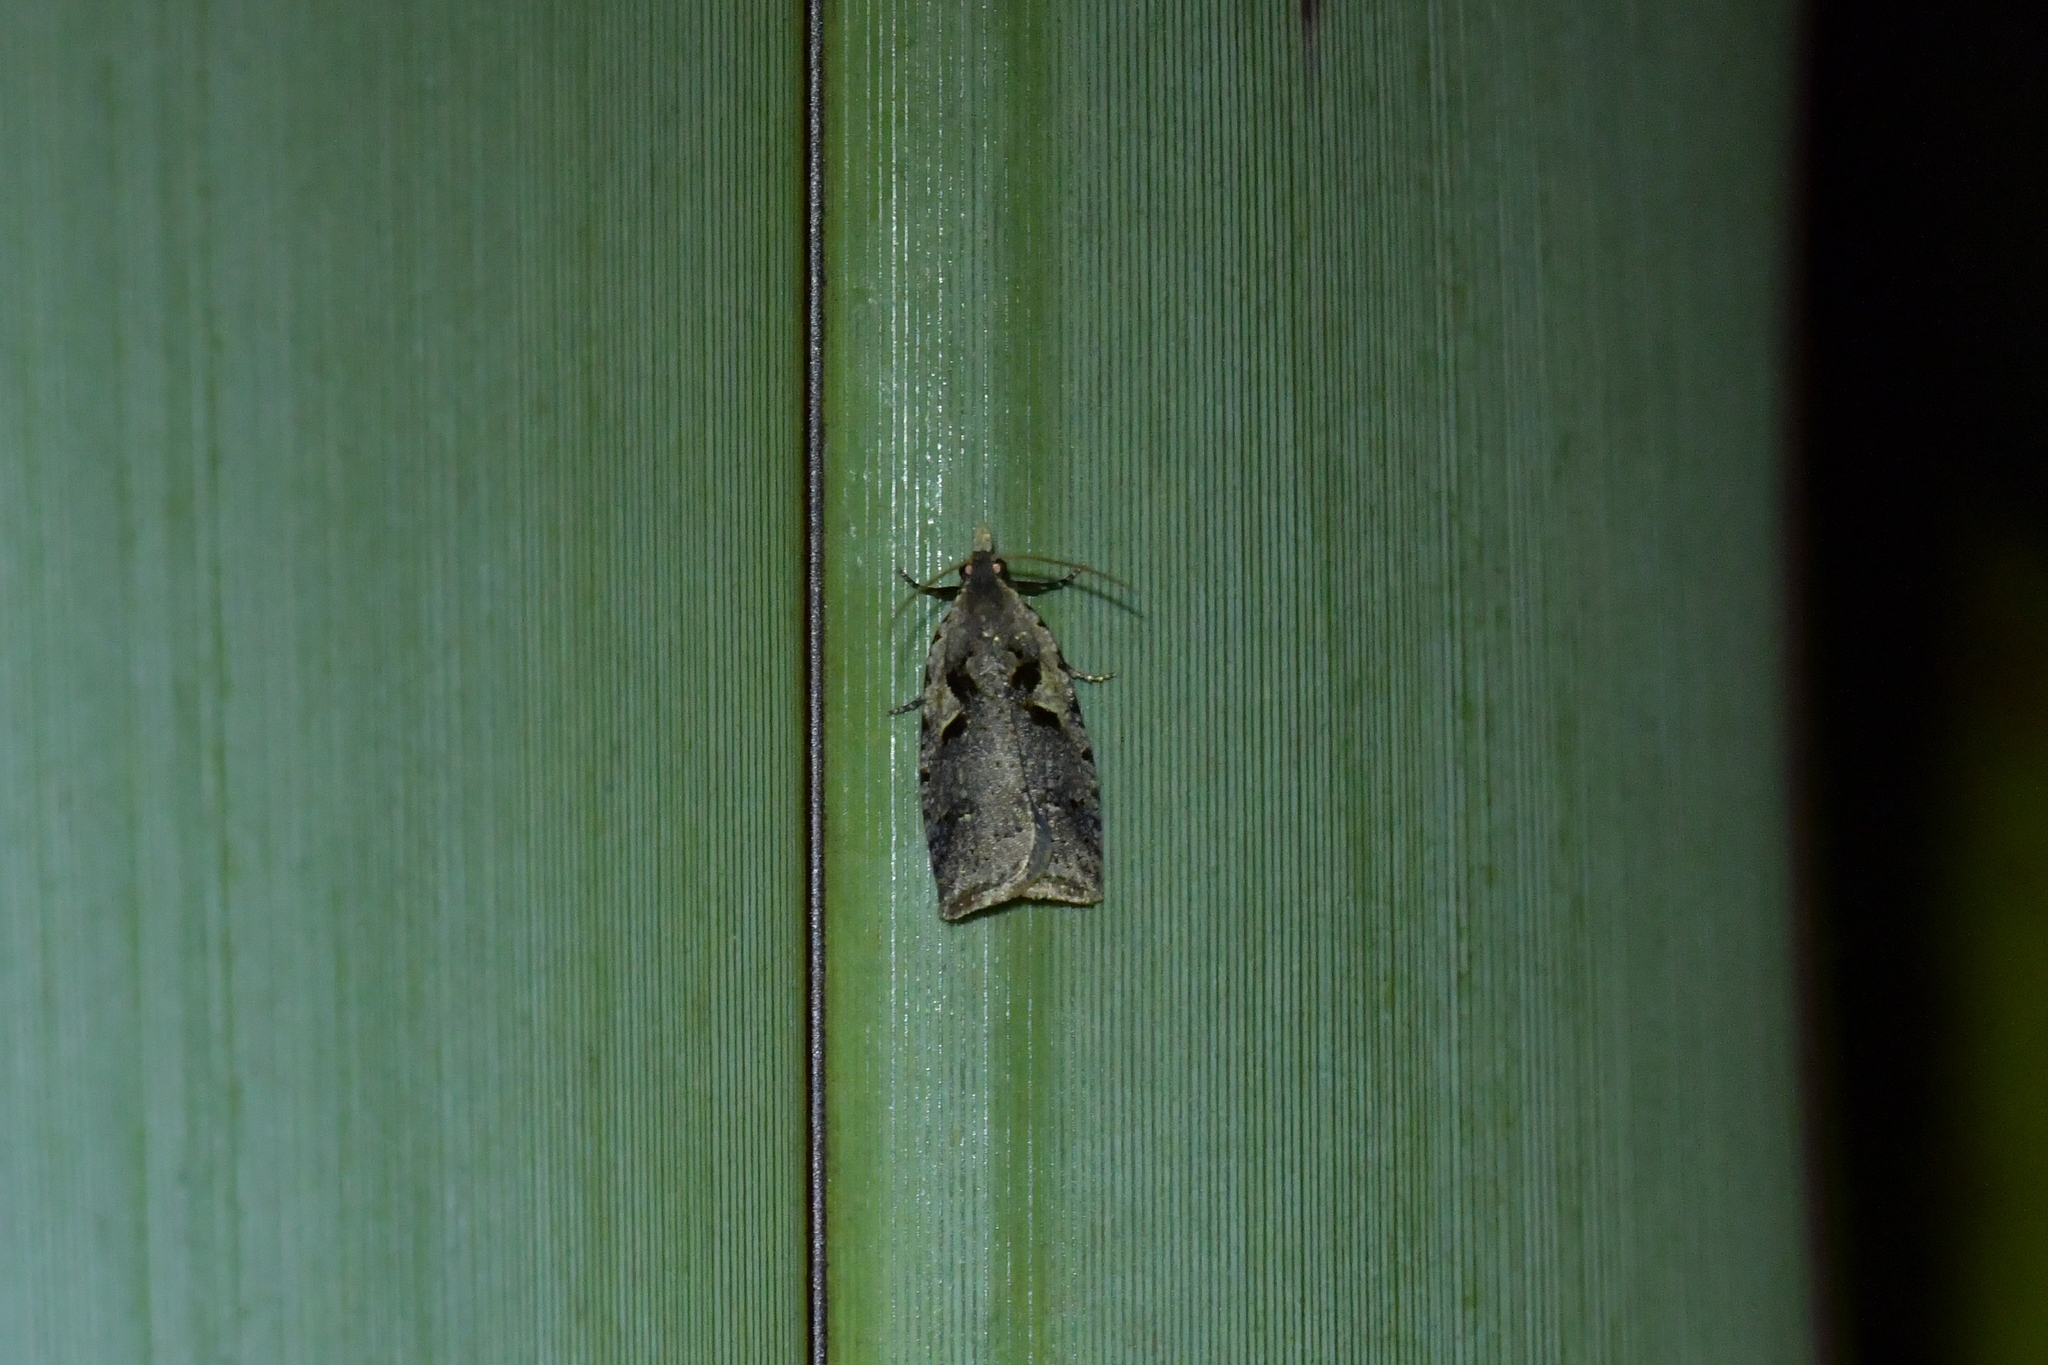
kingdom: Animalia
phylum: Arthropoda
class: Insecta
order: Lepidoptera
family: Tortricidae
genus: Cnephasia
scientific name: Cnephasia jactatana
